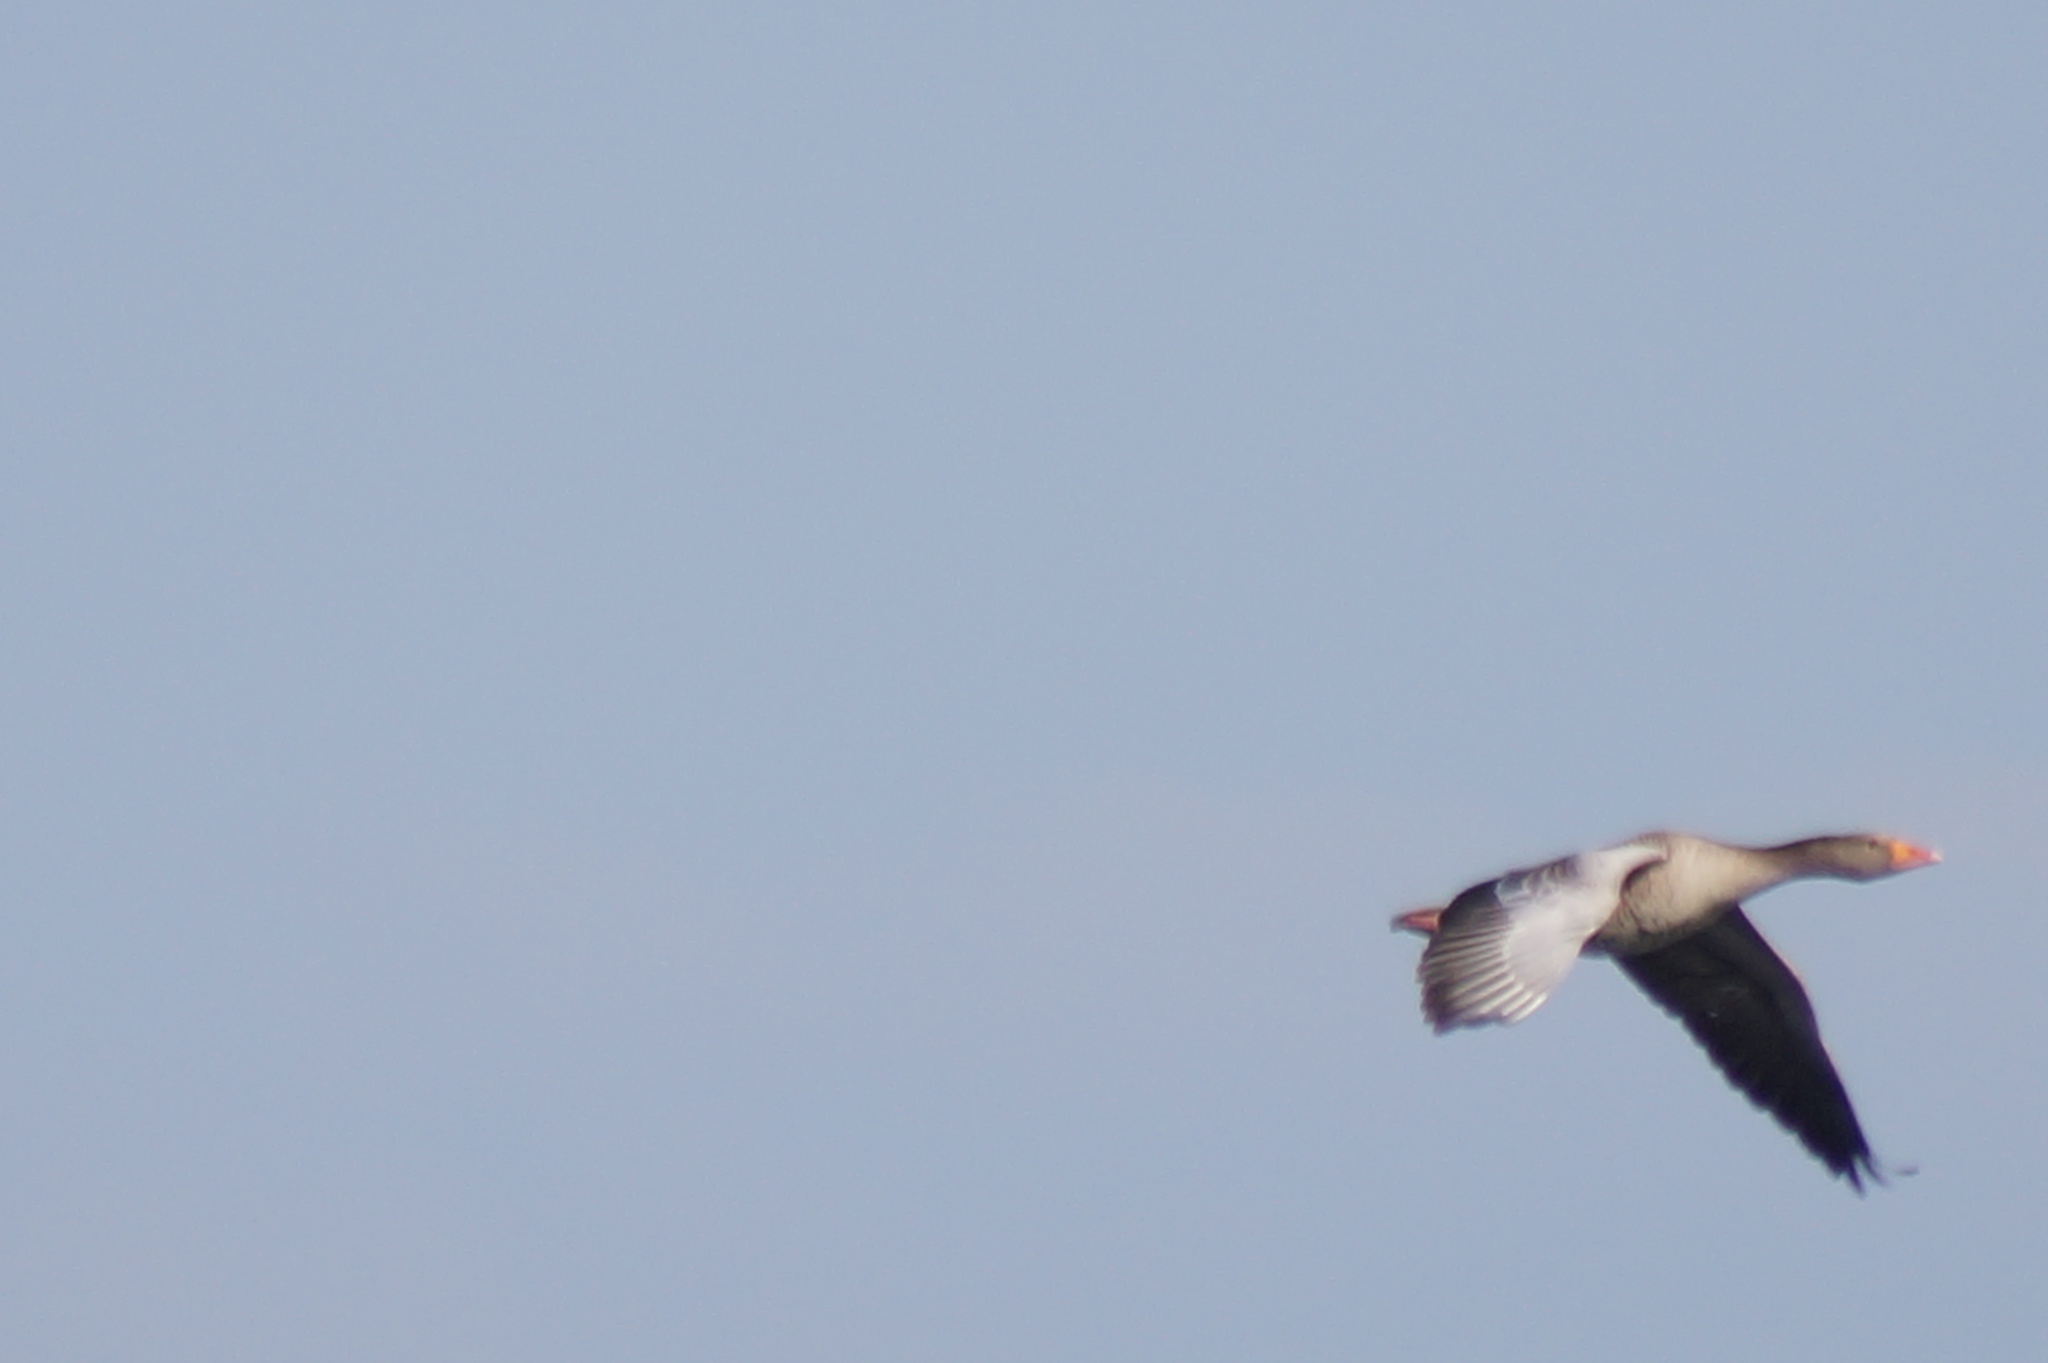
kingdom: Animalia
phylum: Chordata
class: Aves
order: Anseriformes
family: Anatidae
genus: Anser
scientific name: Anser anser
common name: Greylag goose
